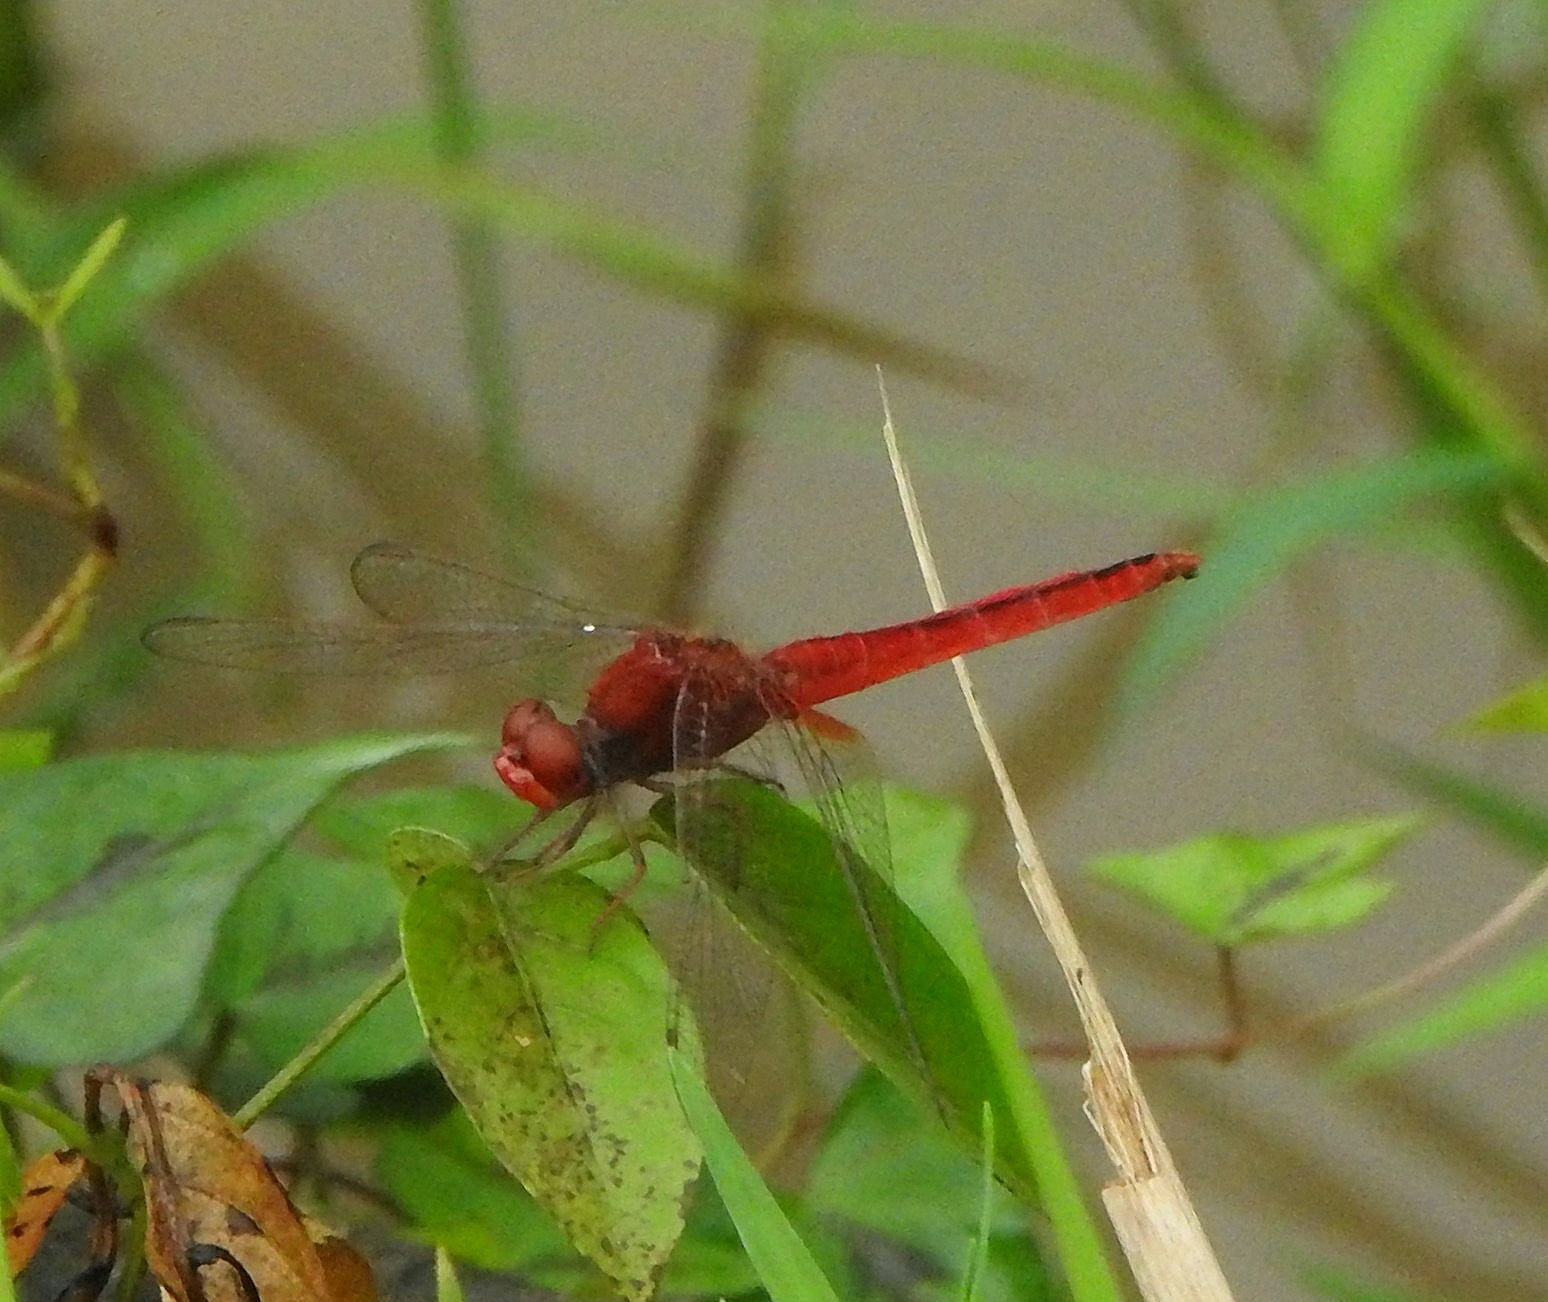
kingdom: Animalia
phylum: Arthropoda
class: Insecta
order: Odonata
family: Libellulidae
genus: Crocothemis
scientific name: Crocothemis servilia
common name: Scarlet skimmer
